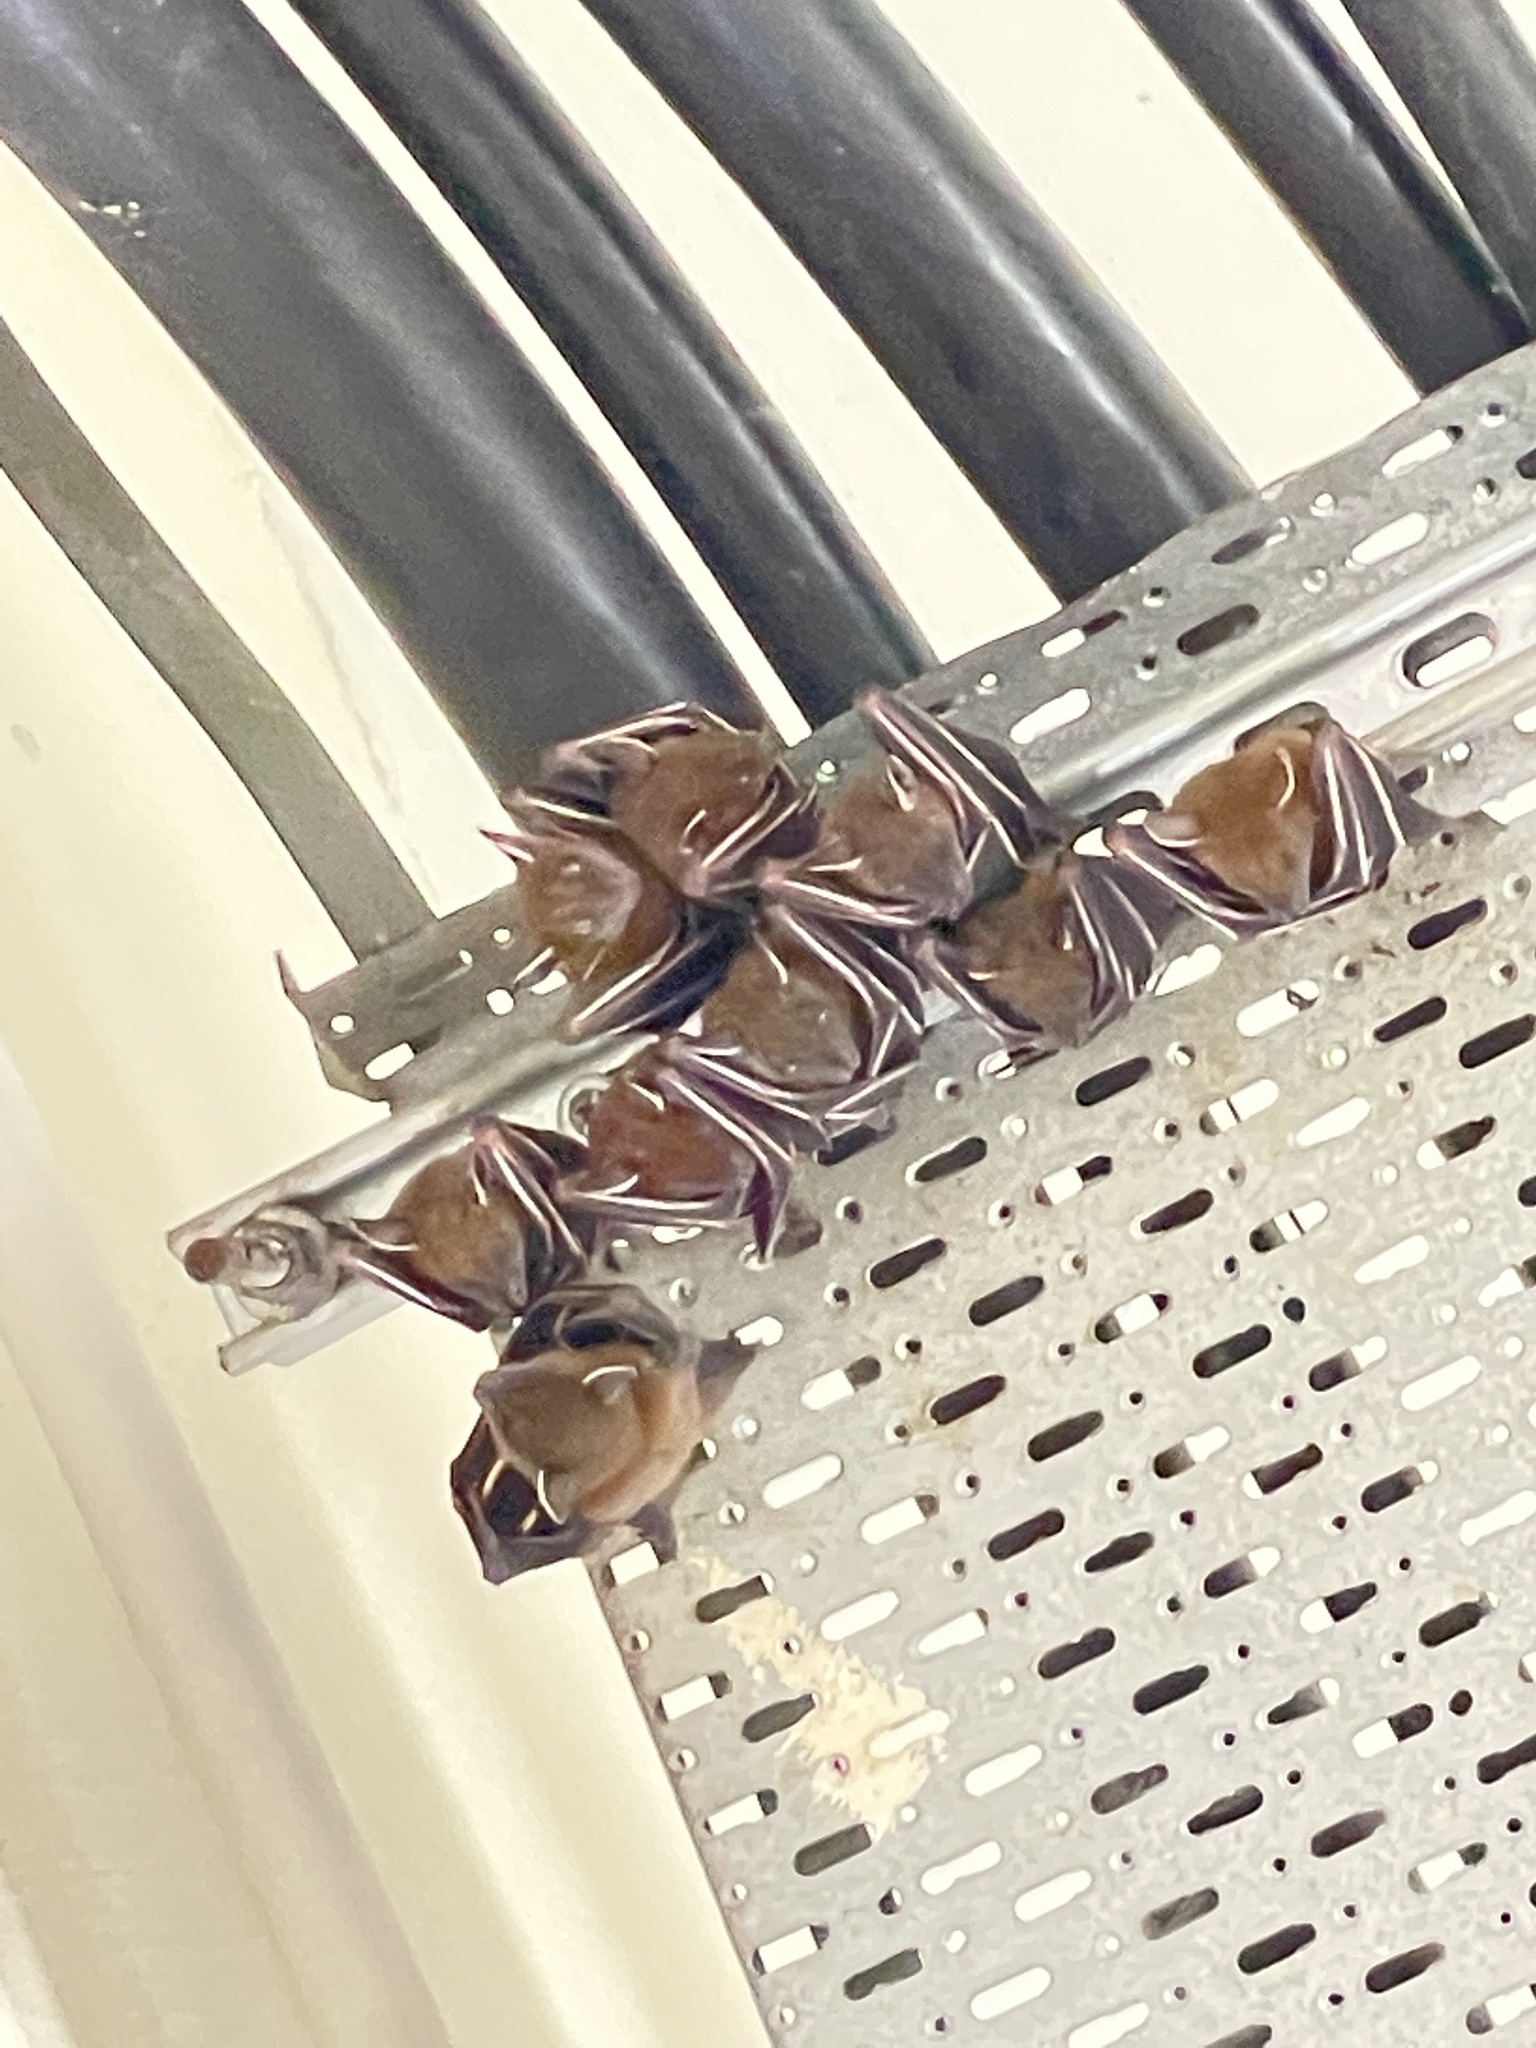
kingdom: Animalia
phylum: Chordata
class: Mammalia
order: Chiroptera
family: Pteropodidae
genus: Cynopterus
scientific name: Cynopterus sphinx
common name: Greater short-nosed fruit bat
